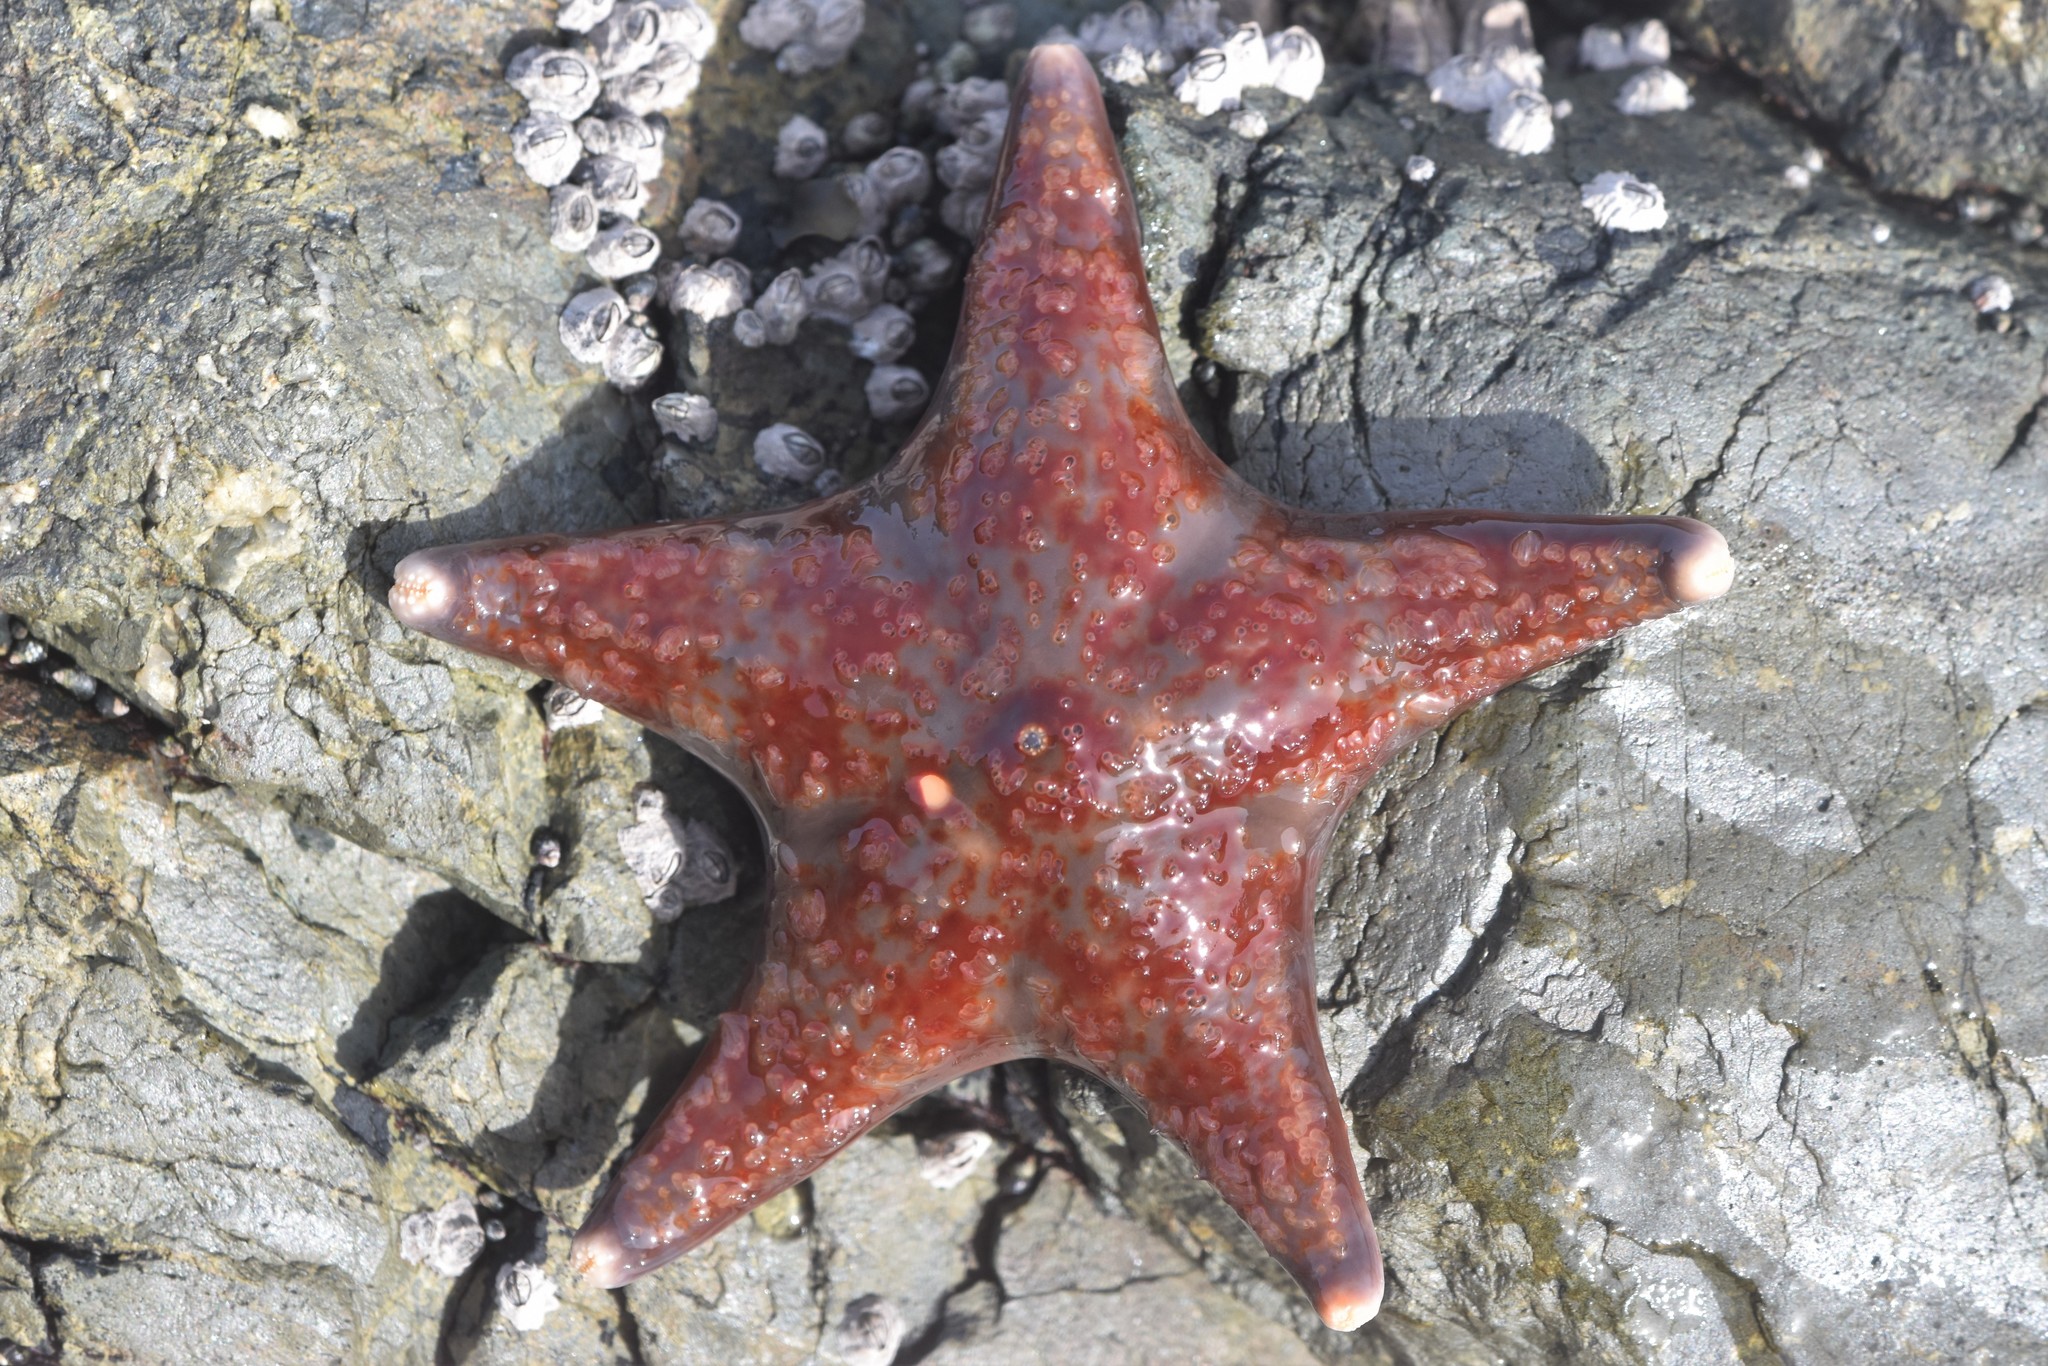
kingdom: Animalia
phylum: Echinodermata
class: Asteroidea
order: Valvatida
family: Asteropseidae
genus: Dermasterias
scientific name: Dermasterias imbricata
